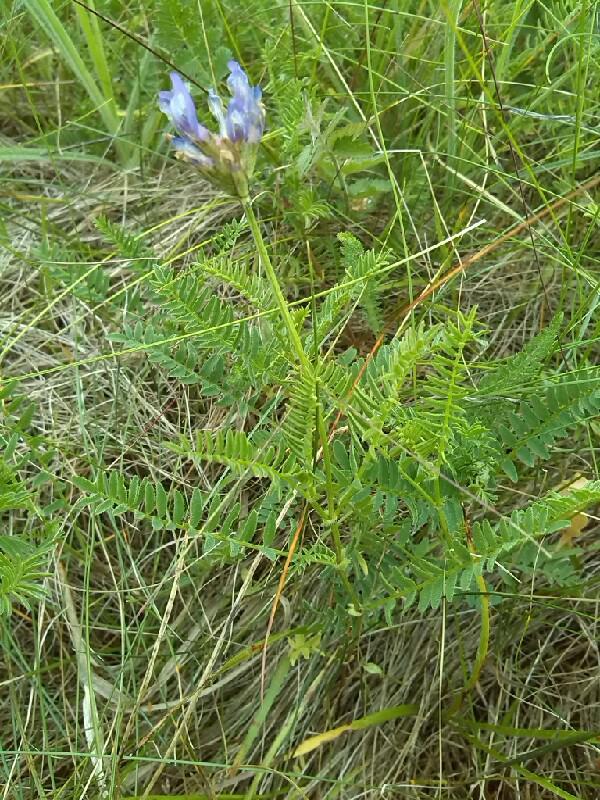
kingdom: Plantae
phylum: Tracheophyta
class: Magnoliopsida
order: Fabales
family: Fabaceae
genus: Astragalus
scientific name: Astragalus danicus
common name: Purple milk-vetch
